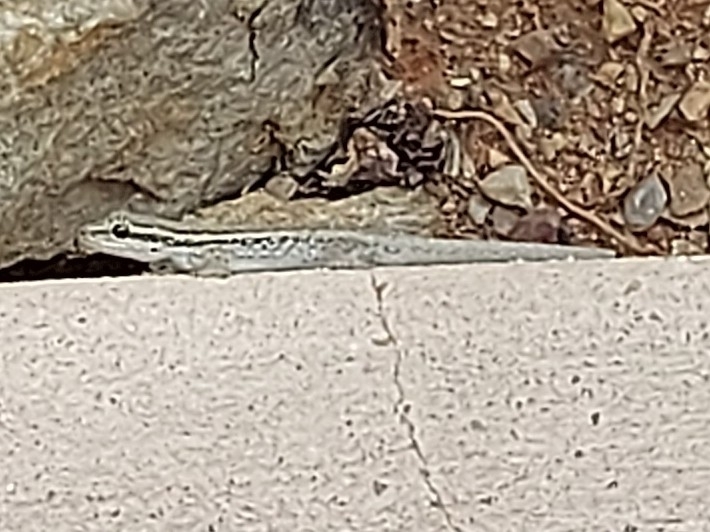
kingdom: Animalia
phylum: Chordata
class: Squamata
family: Gekkonidae
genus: Lygodactylus
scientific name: Lygodactylus capensis
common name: Cape dwarf gecko
